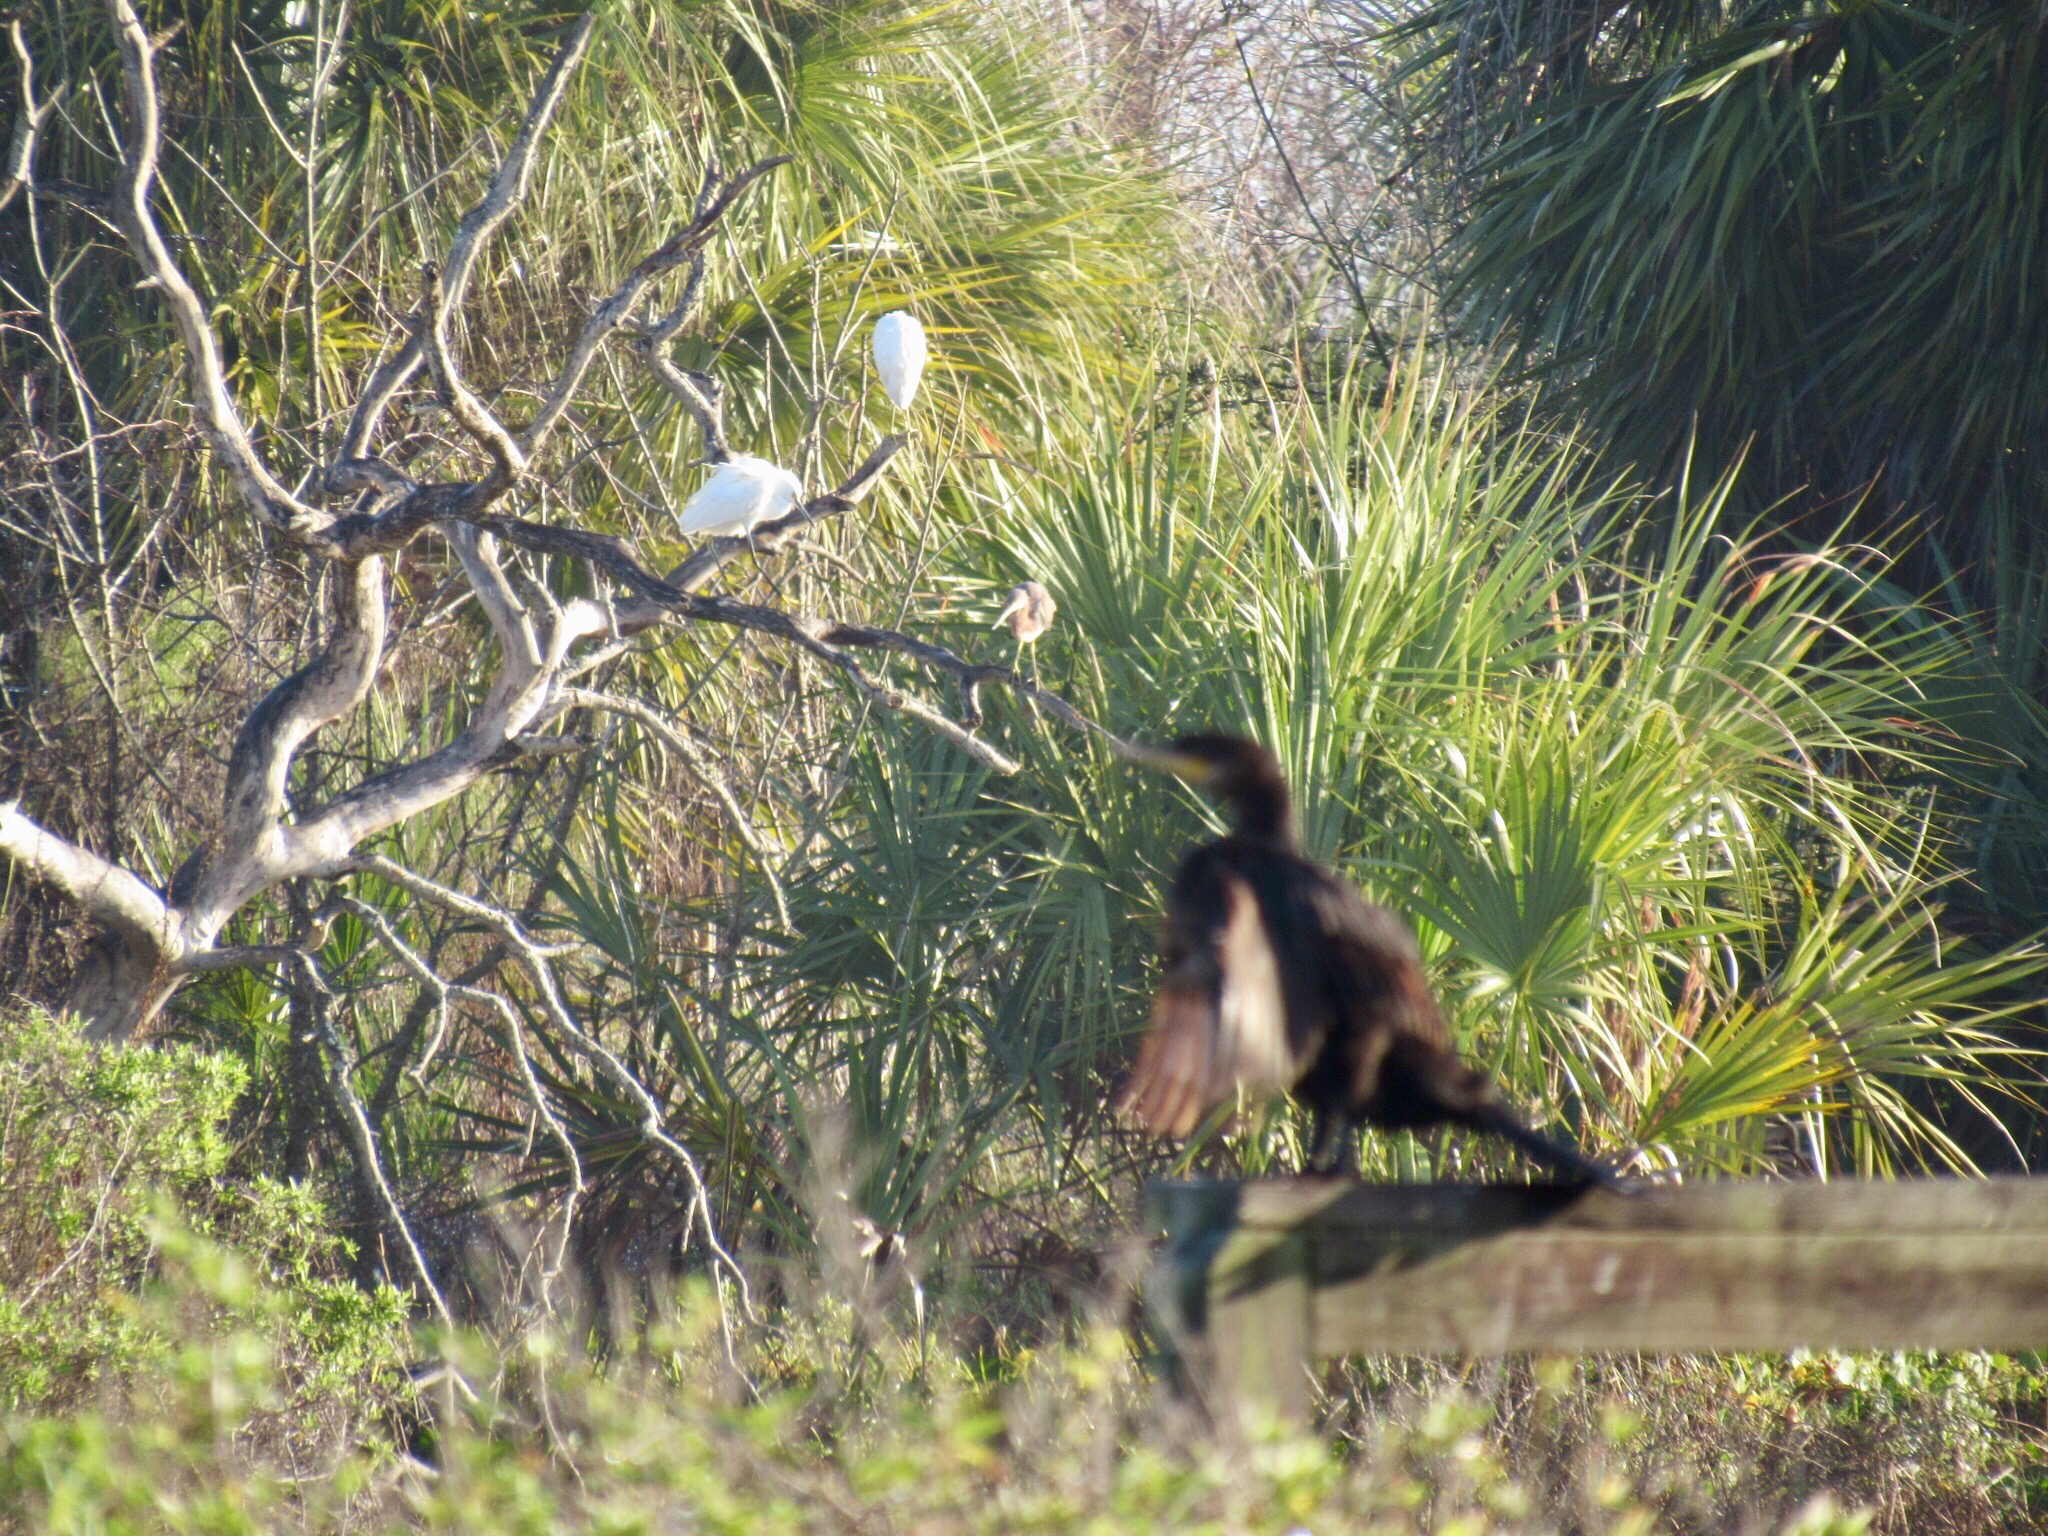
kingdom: Animalia
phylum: Chordata
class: Aves
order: Suliformes
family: Phalacrocoracidae
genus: Phalacrocorax
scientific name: Phalacrocorax brasilianus
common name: Neotropic cormorant
